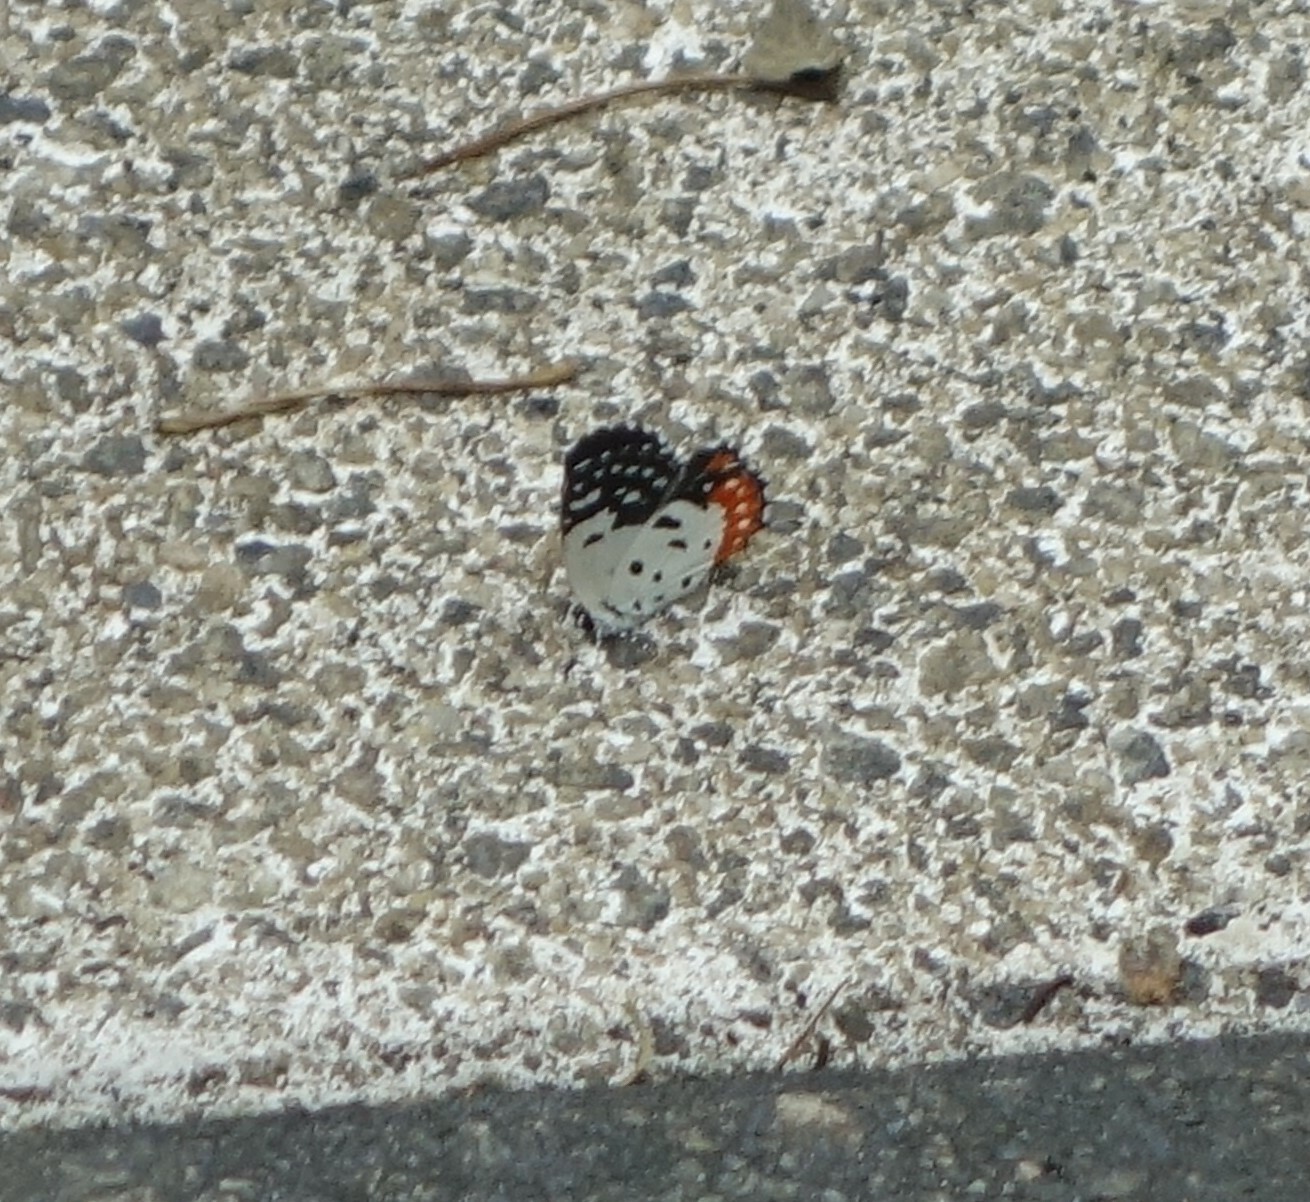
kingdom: Animalia
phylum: Arthropoda
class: Insecta
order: Lepidoptera
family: Lycaenidae
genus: Talicada
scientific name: Talicada nyseus
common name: Red pierrot
